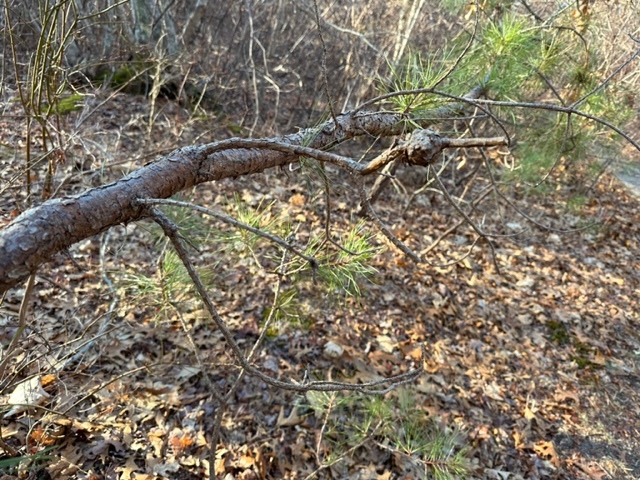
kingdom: Fungi
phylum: Basidiomycota
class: Pucciniomycetes
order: Pucciniales
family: Cronartiaceae
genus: Cronartium
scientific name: Cronartium quercuum
